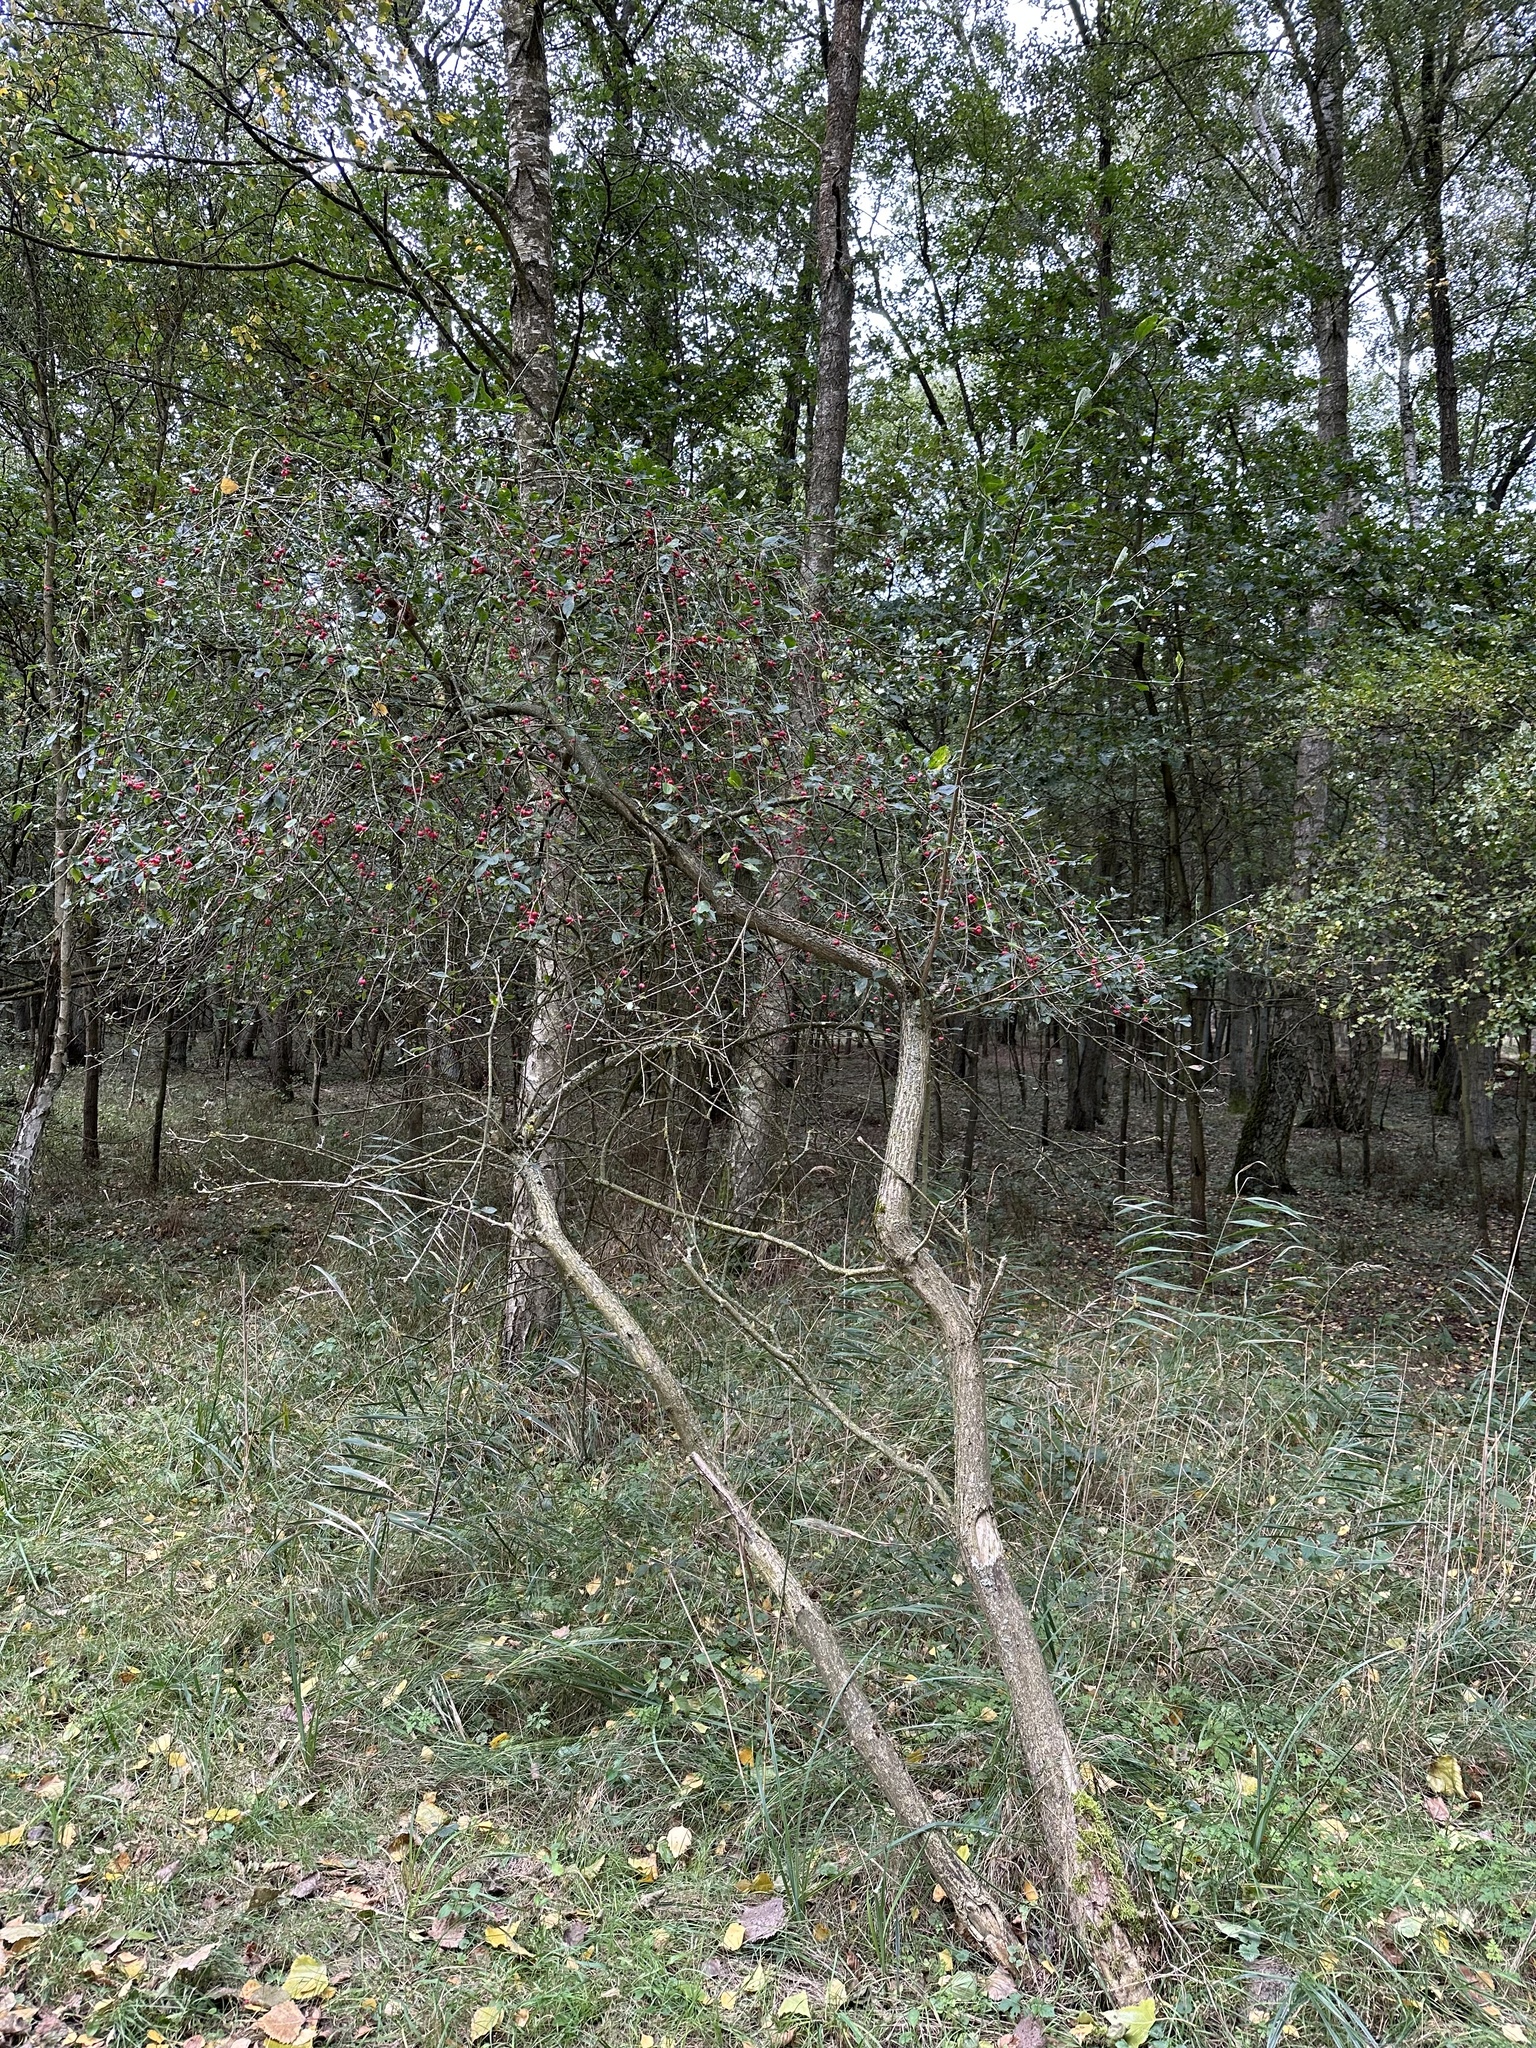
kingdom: Plantae
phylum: Tracheophyta
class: Magnoliopsida
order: Celastrales
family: Celastraceae
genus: Euonymus
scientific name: Euonymus europaeus
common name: Spindle
